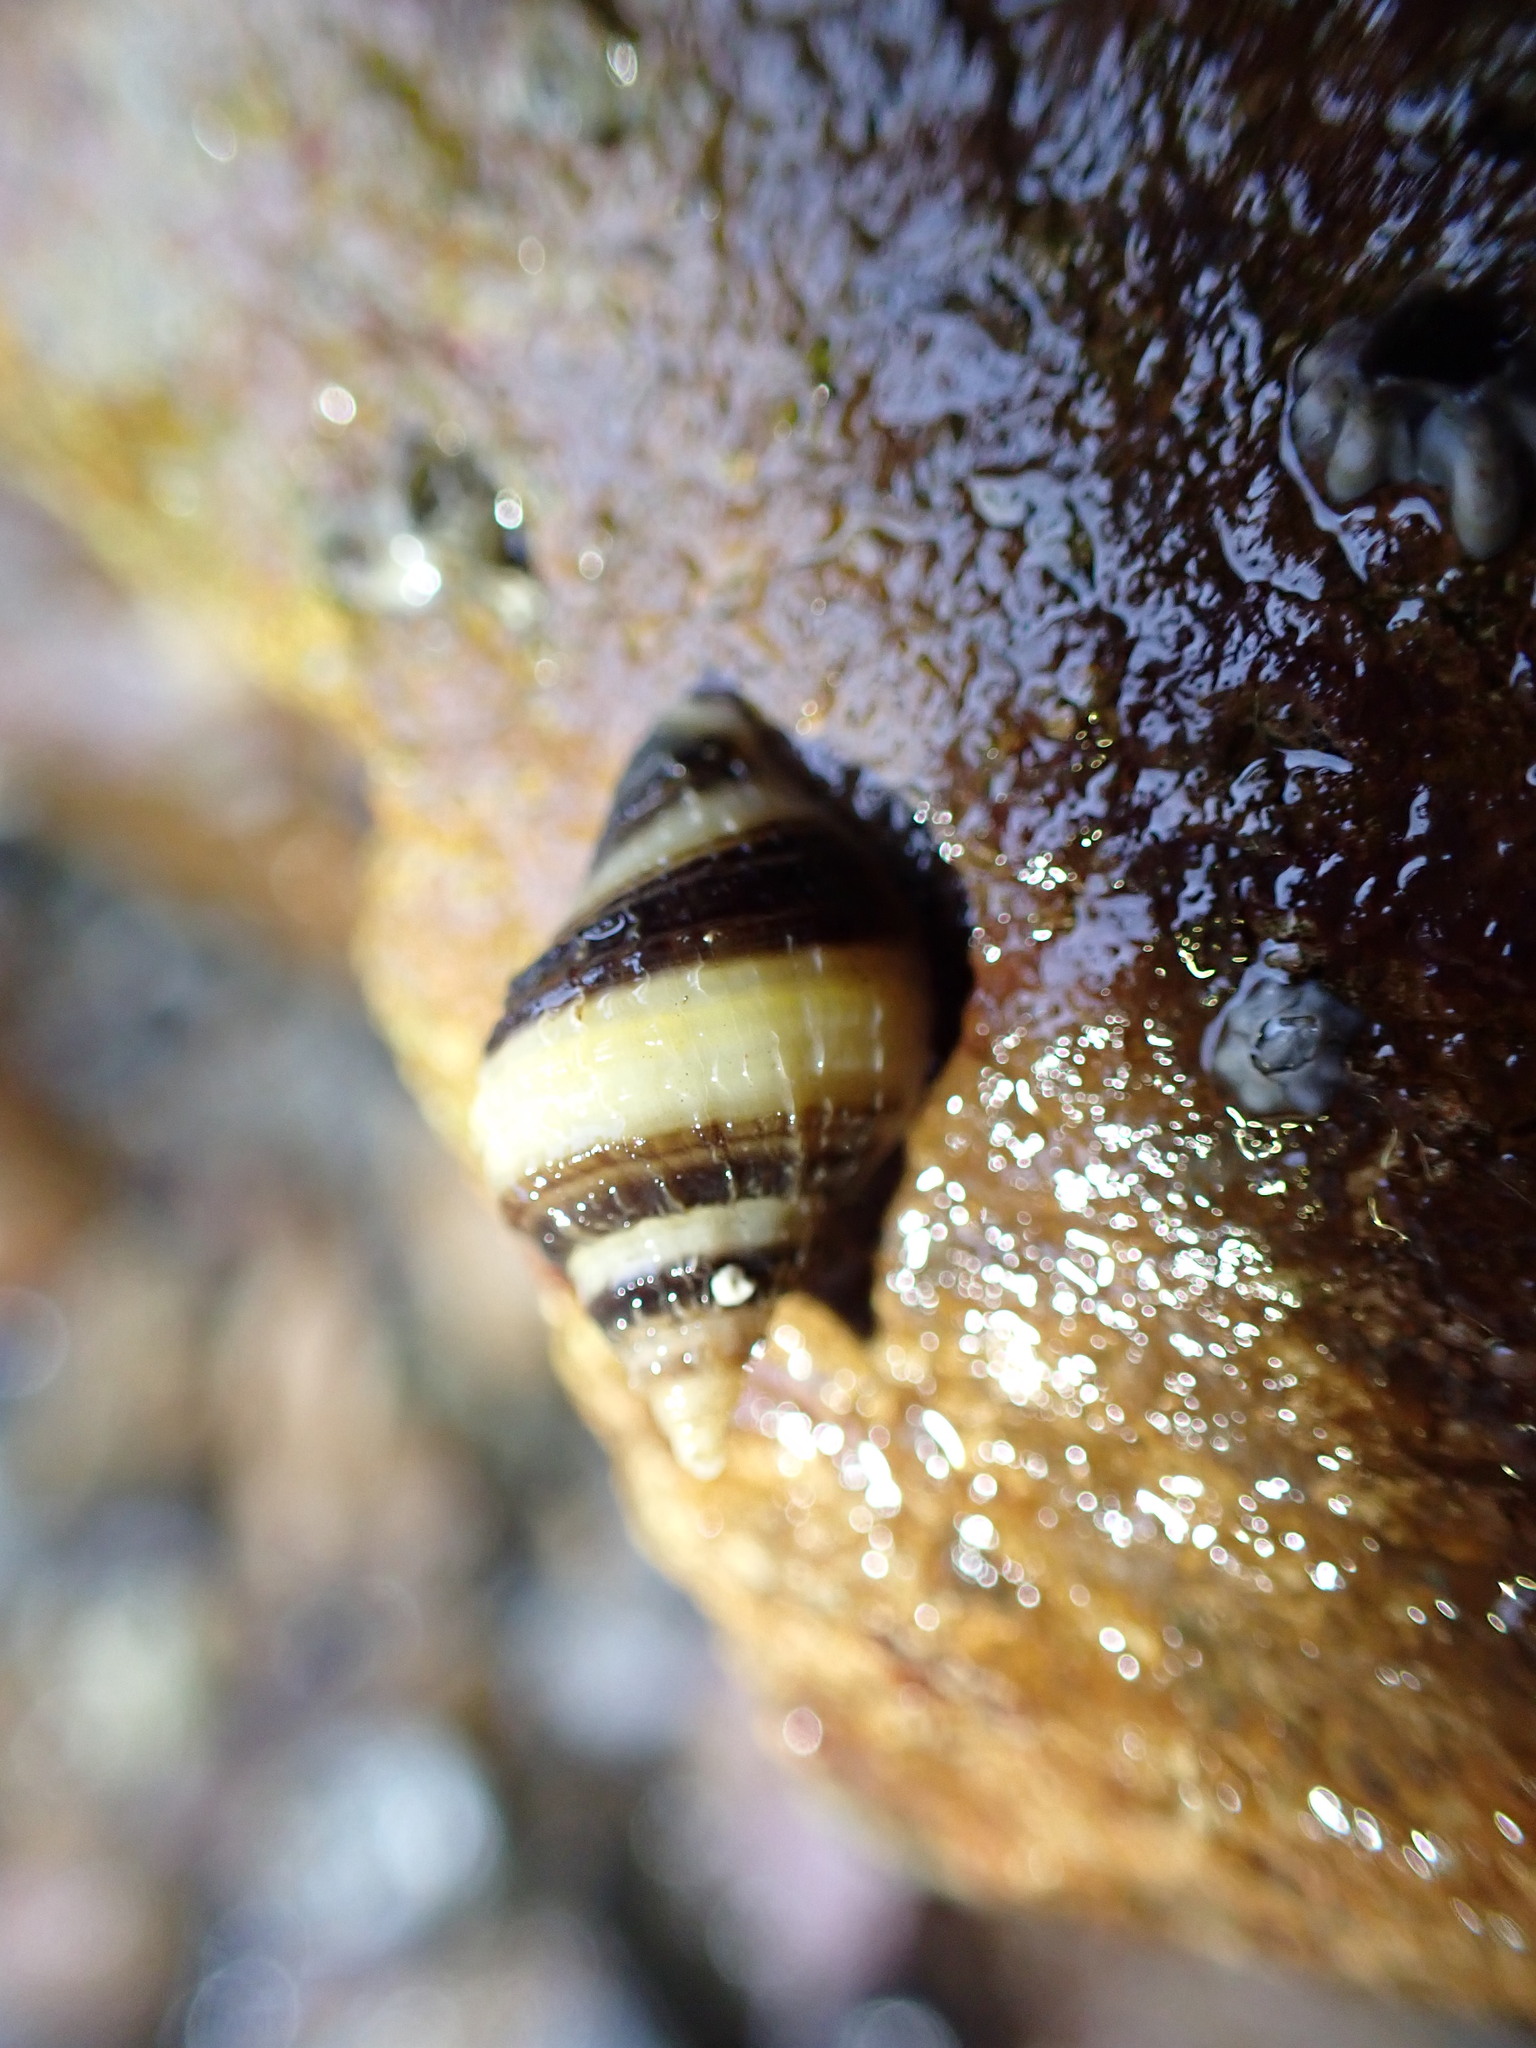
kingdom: Animalia
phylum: Mollusca
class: Gastropoda
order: Neogastropoda
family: Muricidae
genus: Nucella
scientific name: Nucella lapillus
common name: Dog whelk
